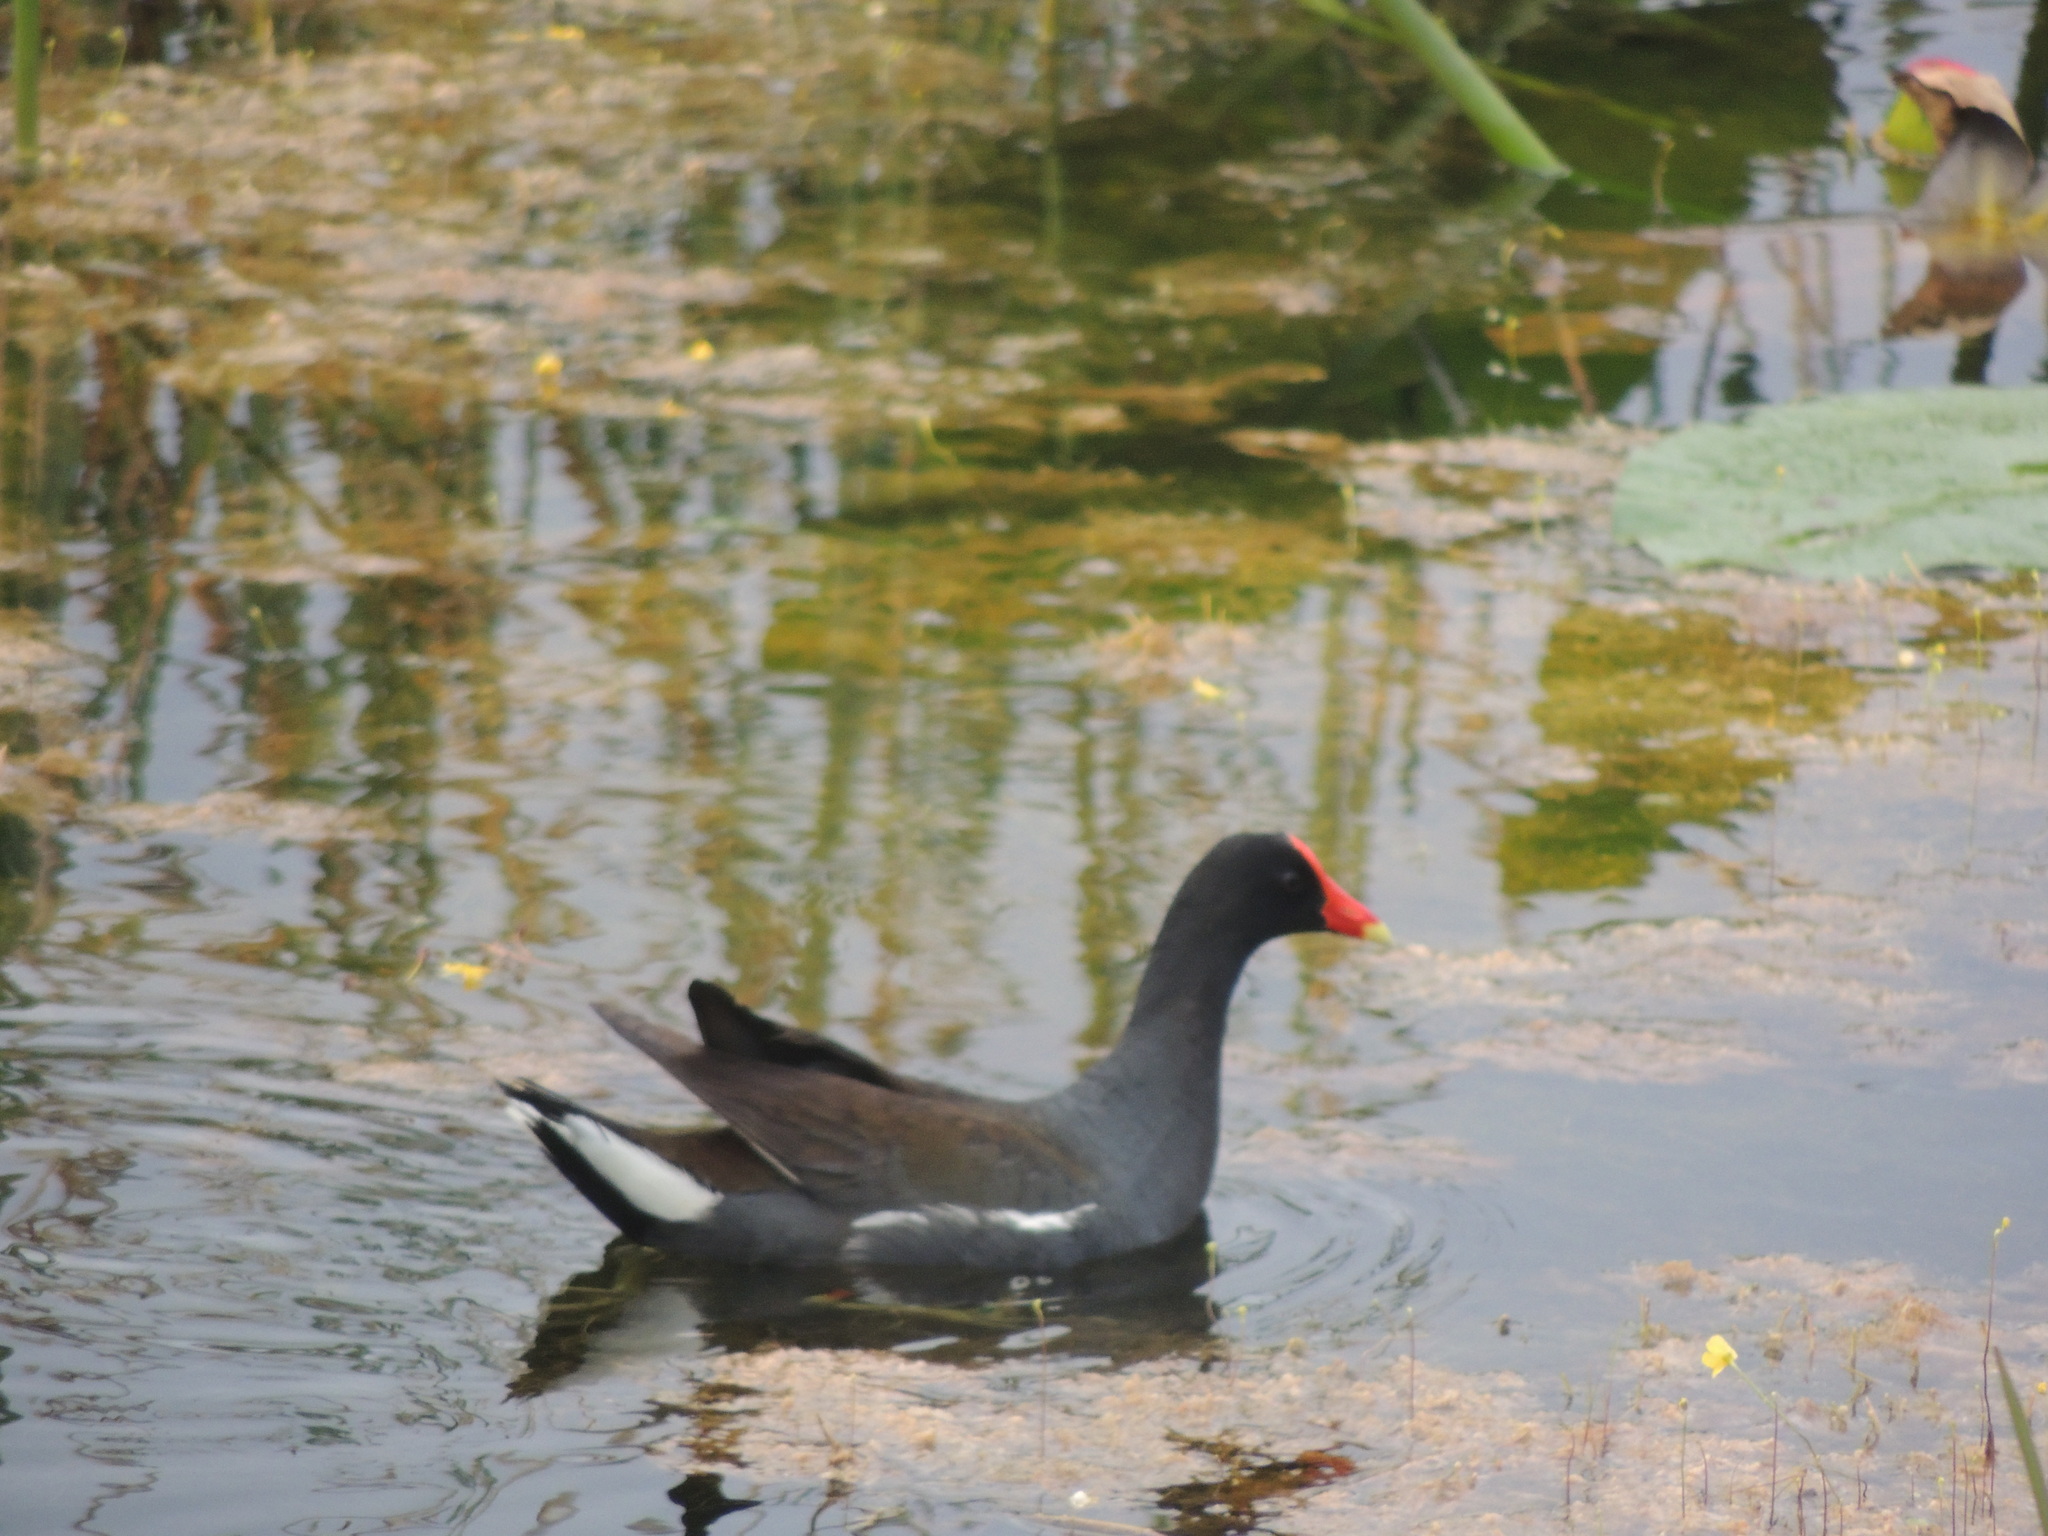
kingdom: Animalia
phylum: Chordata
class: Aves
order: Gruiformes
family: Rallidae
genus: Gallinula
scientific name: Gallinula chloropus
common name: Common moorhen
